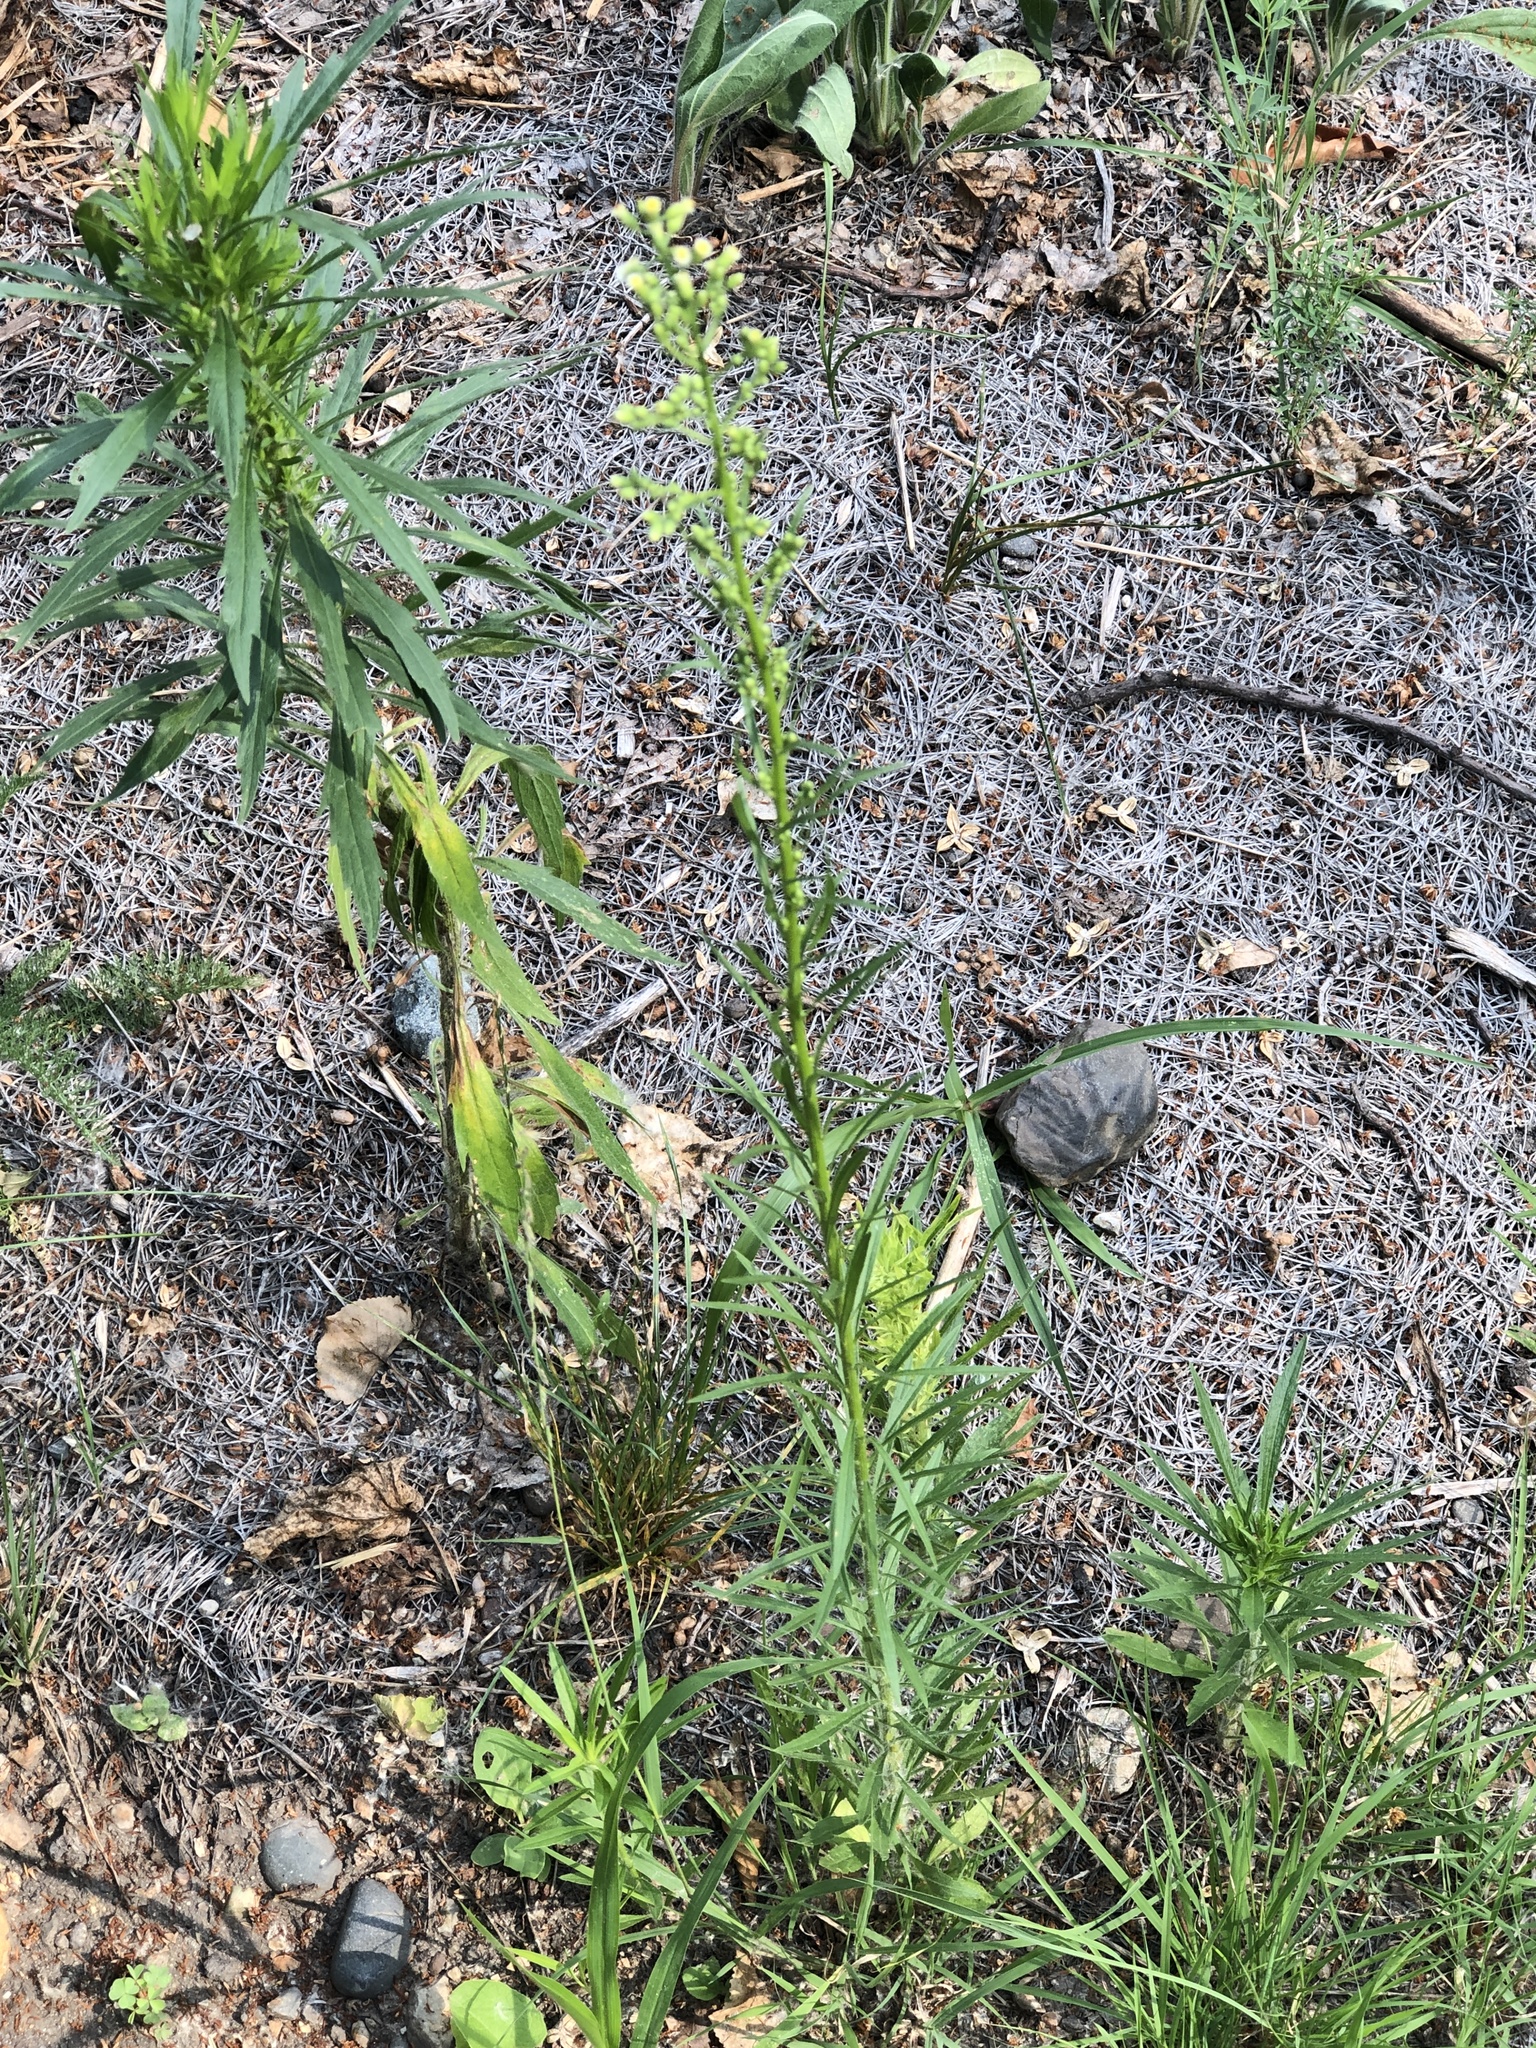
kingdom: Plantae
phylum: Tracheophyta
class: Magnoliopsida
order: Asterales
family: Asteraceae
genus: Erigeron
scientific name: Erigeron canadensis
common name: Canadian fleabane
